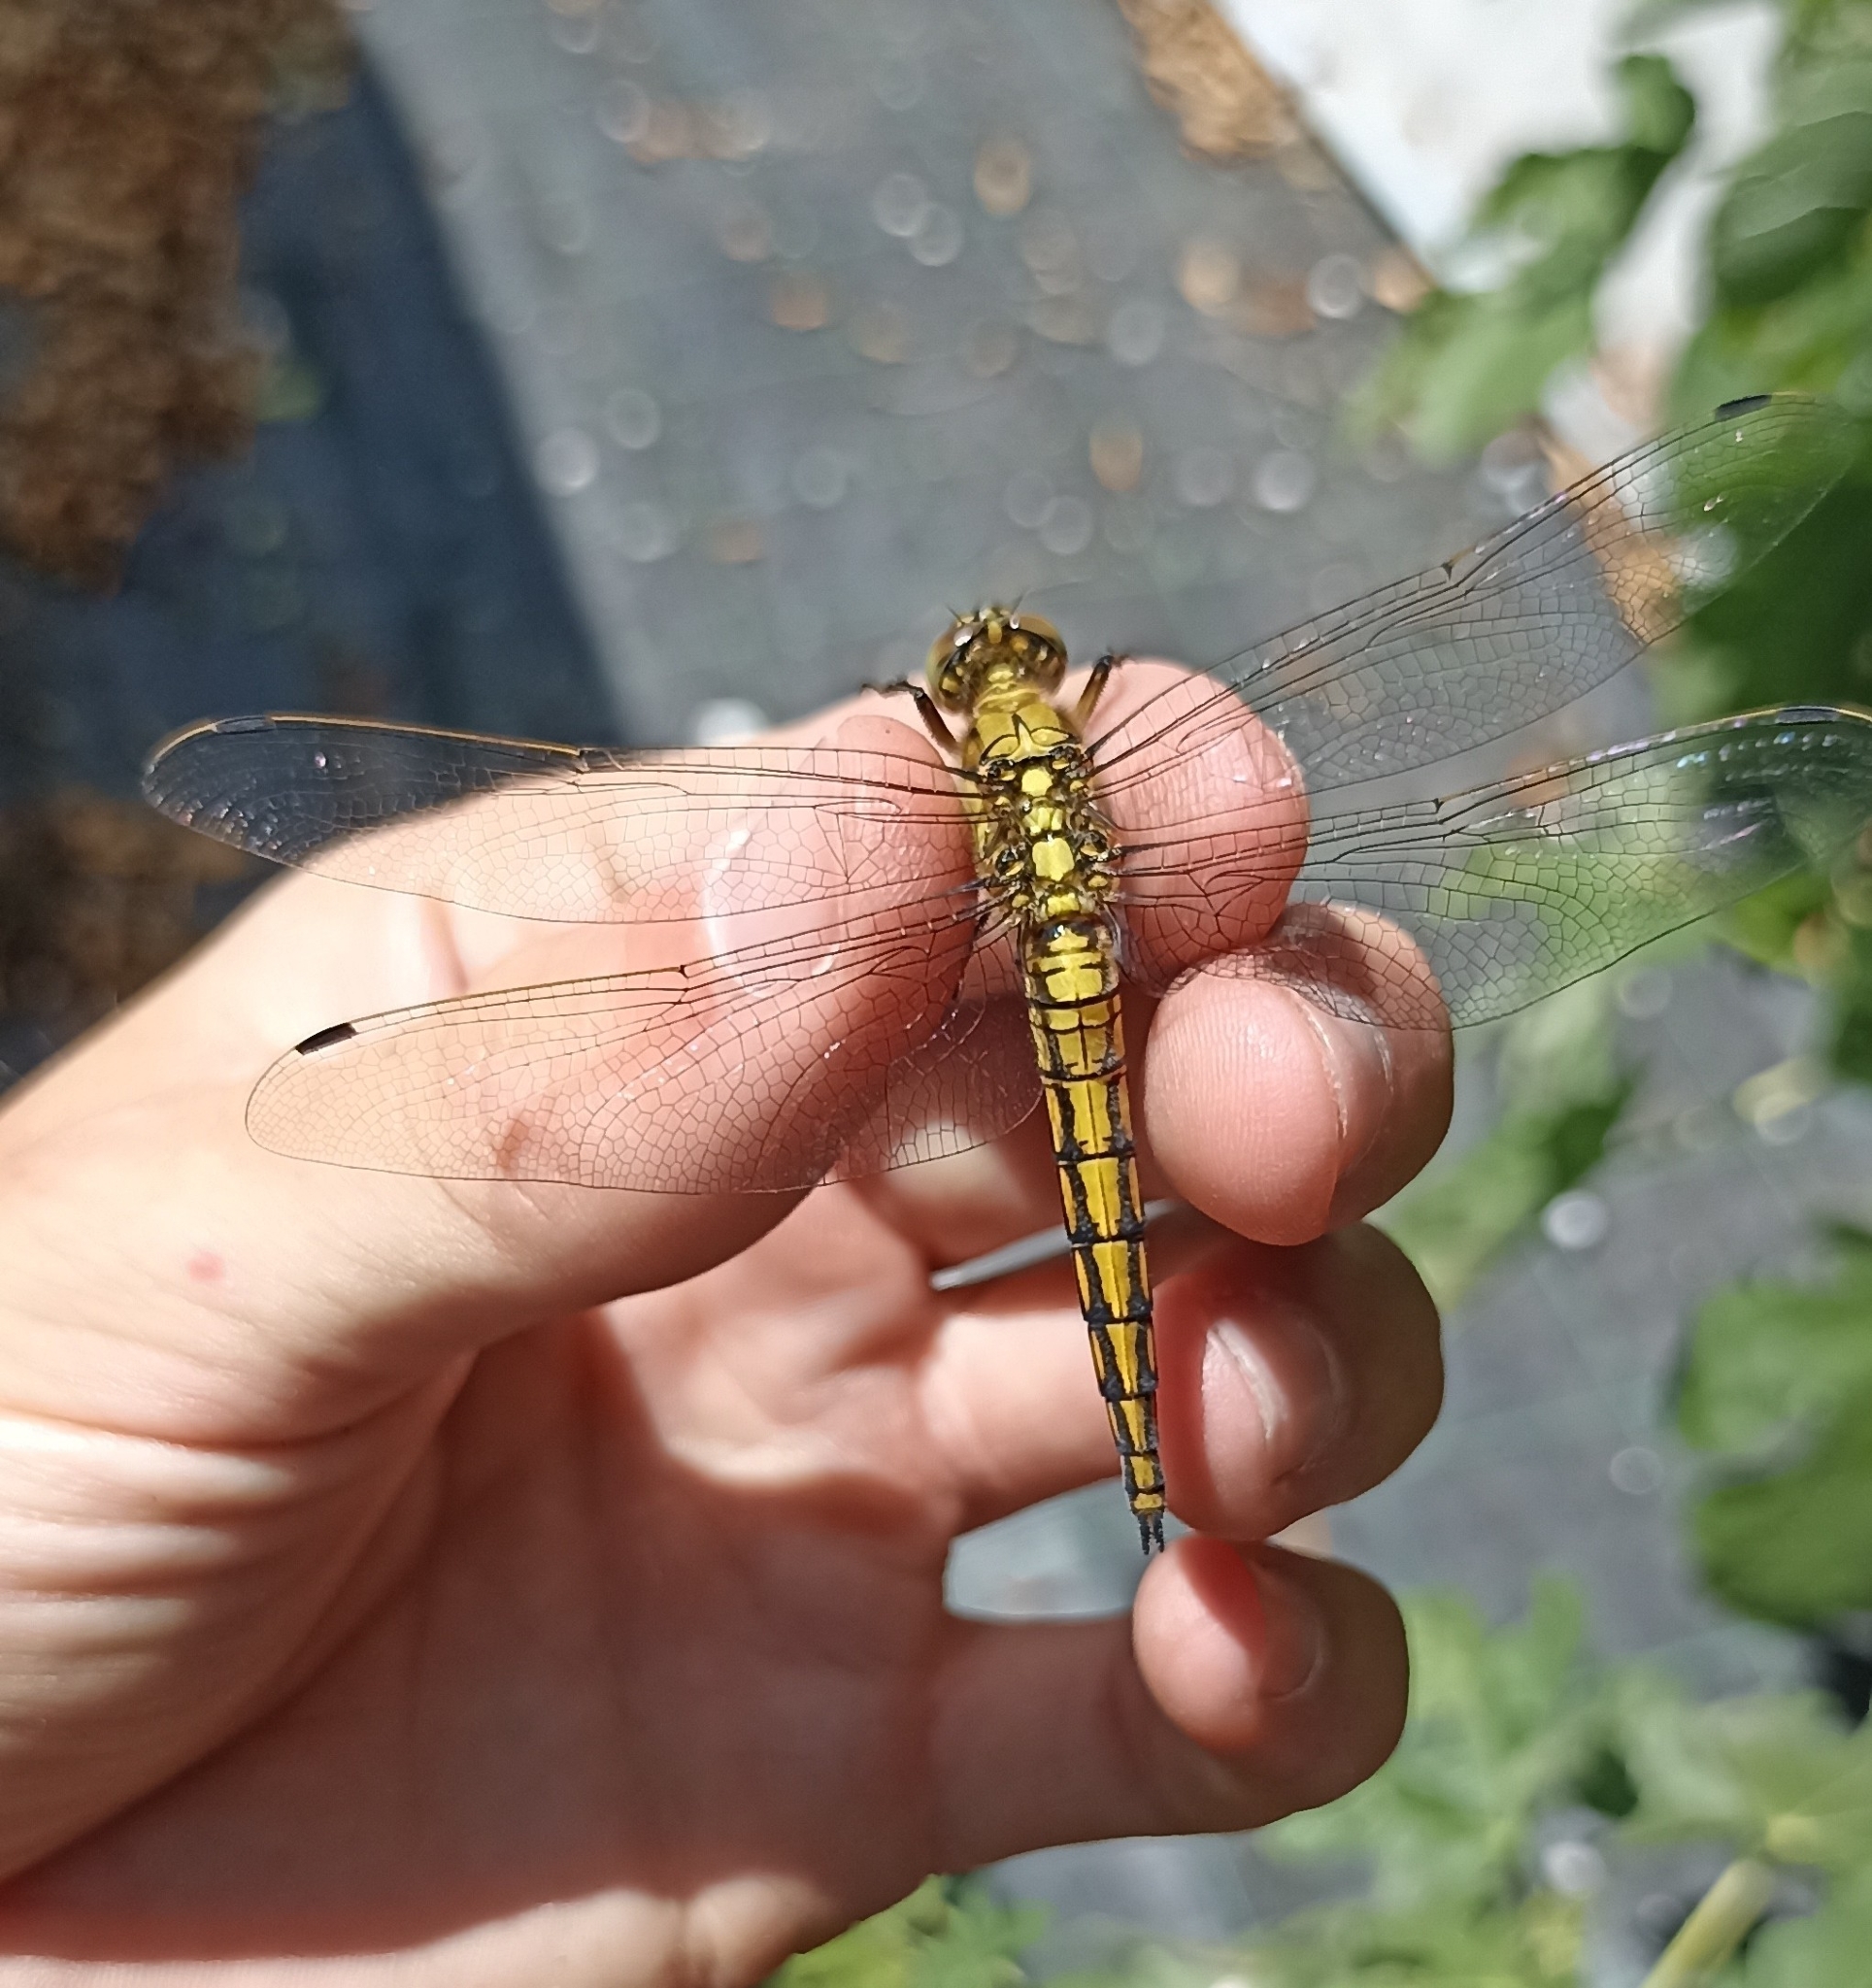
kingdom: Animalia
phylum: Arthropoda
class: Insecta
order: Odonata
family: Libellulidae
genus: Orthetrum
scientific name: Orthetrum cancellatum
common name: Black-tailed skimmer
